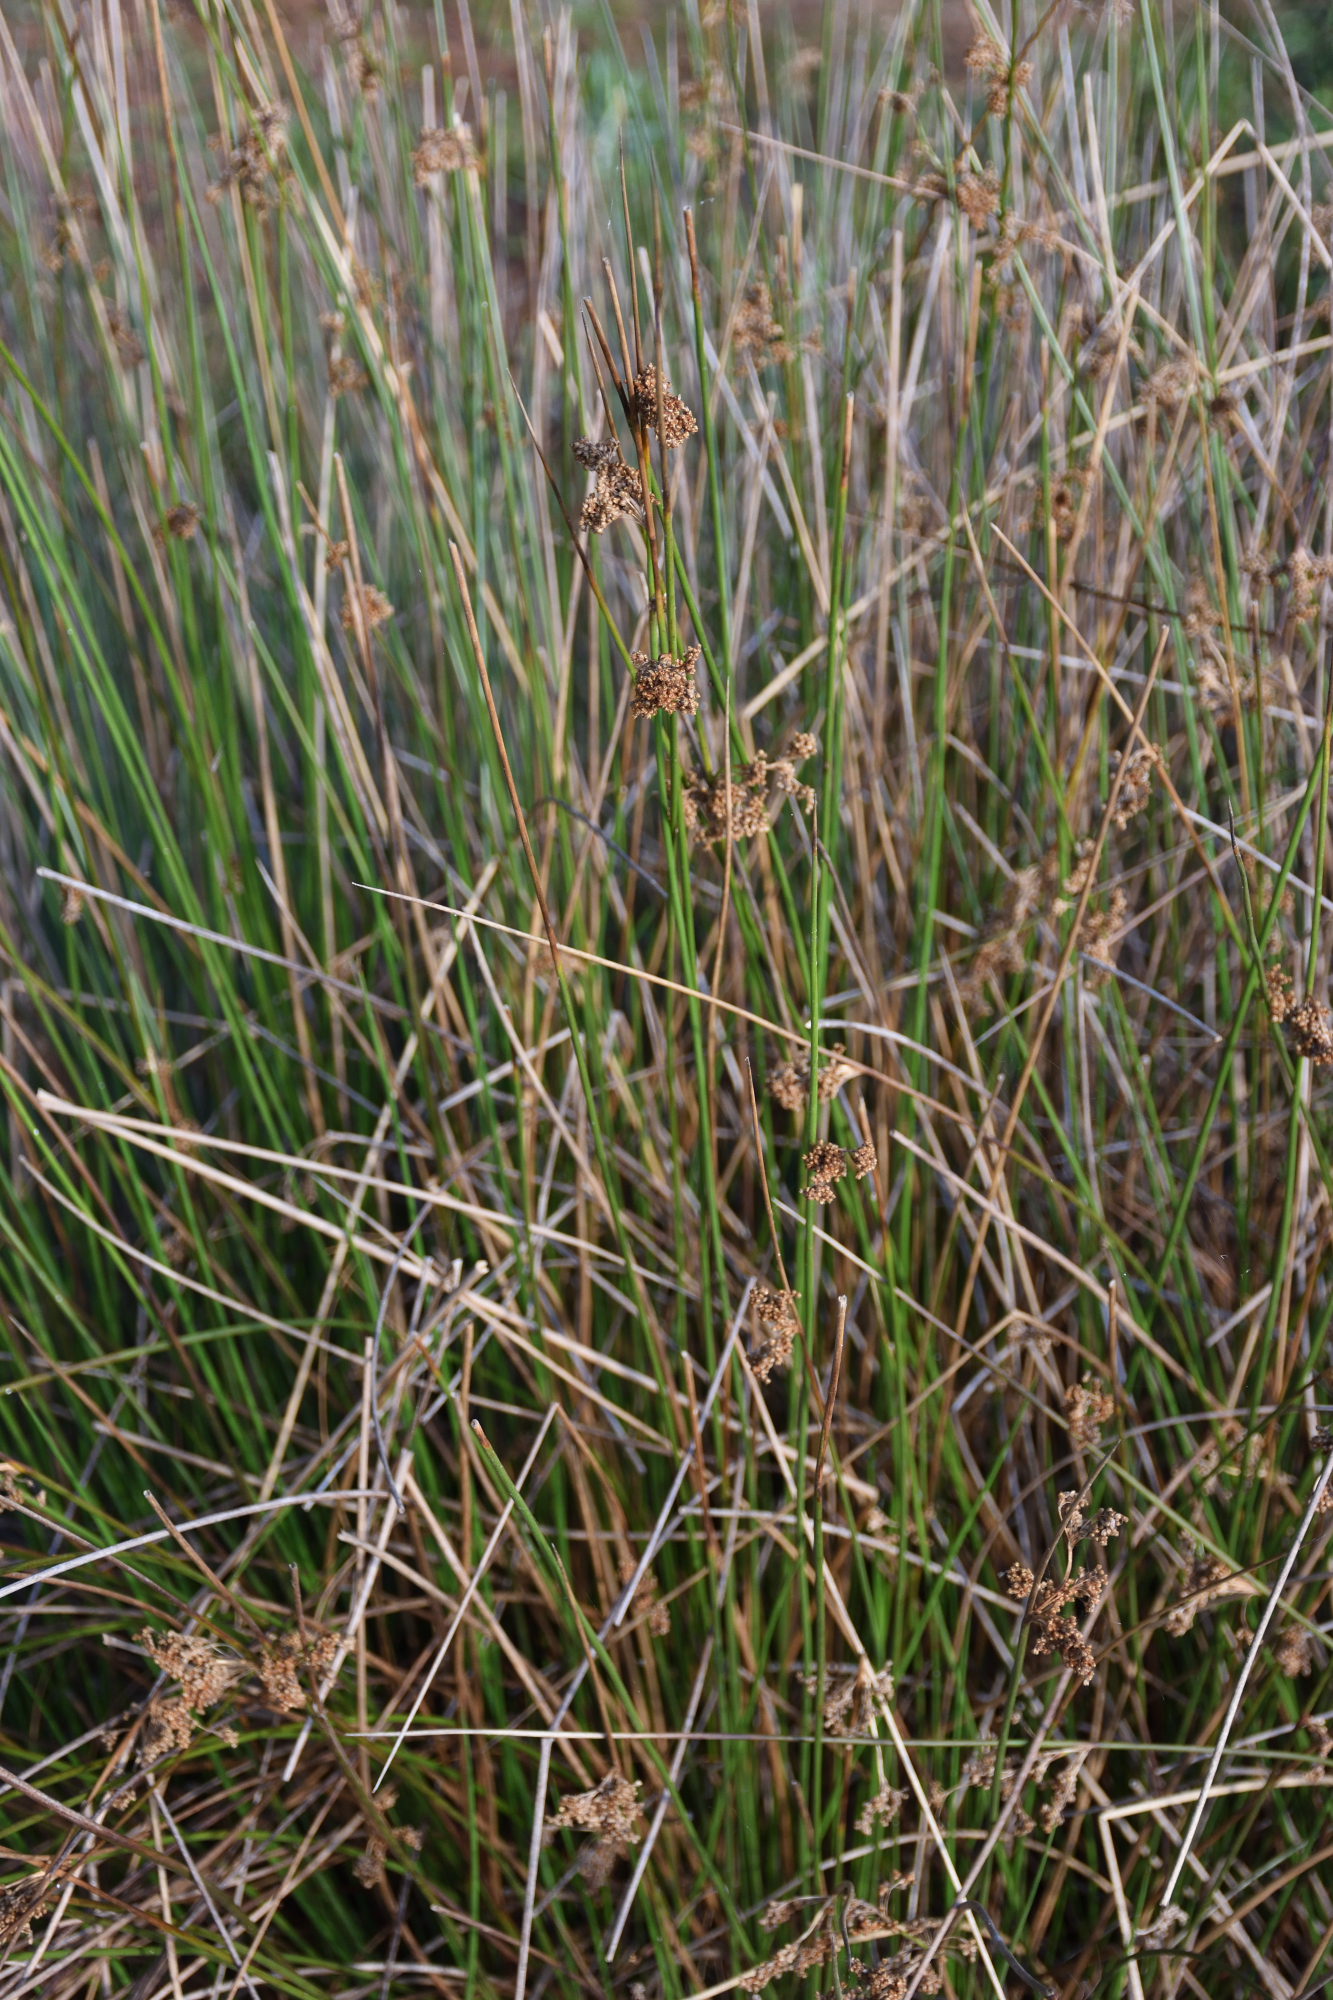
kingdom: Plantae
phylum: Tracheophyta
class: Liliopsida
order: Poales
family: Juncaceae
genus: Juncus
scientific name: Juncus effusus
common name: Soft rush
